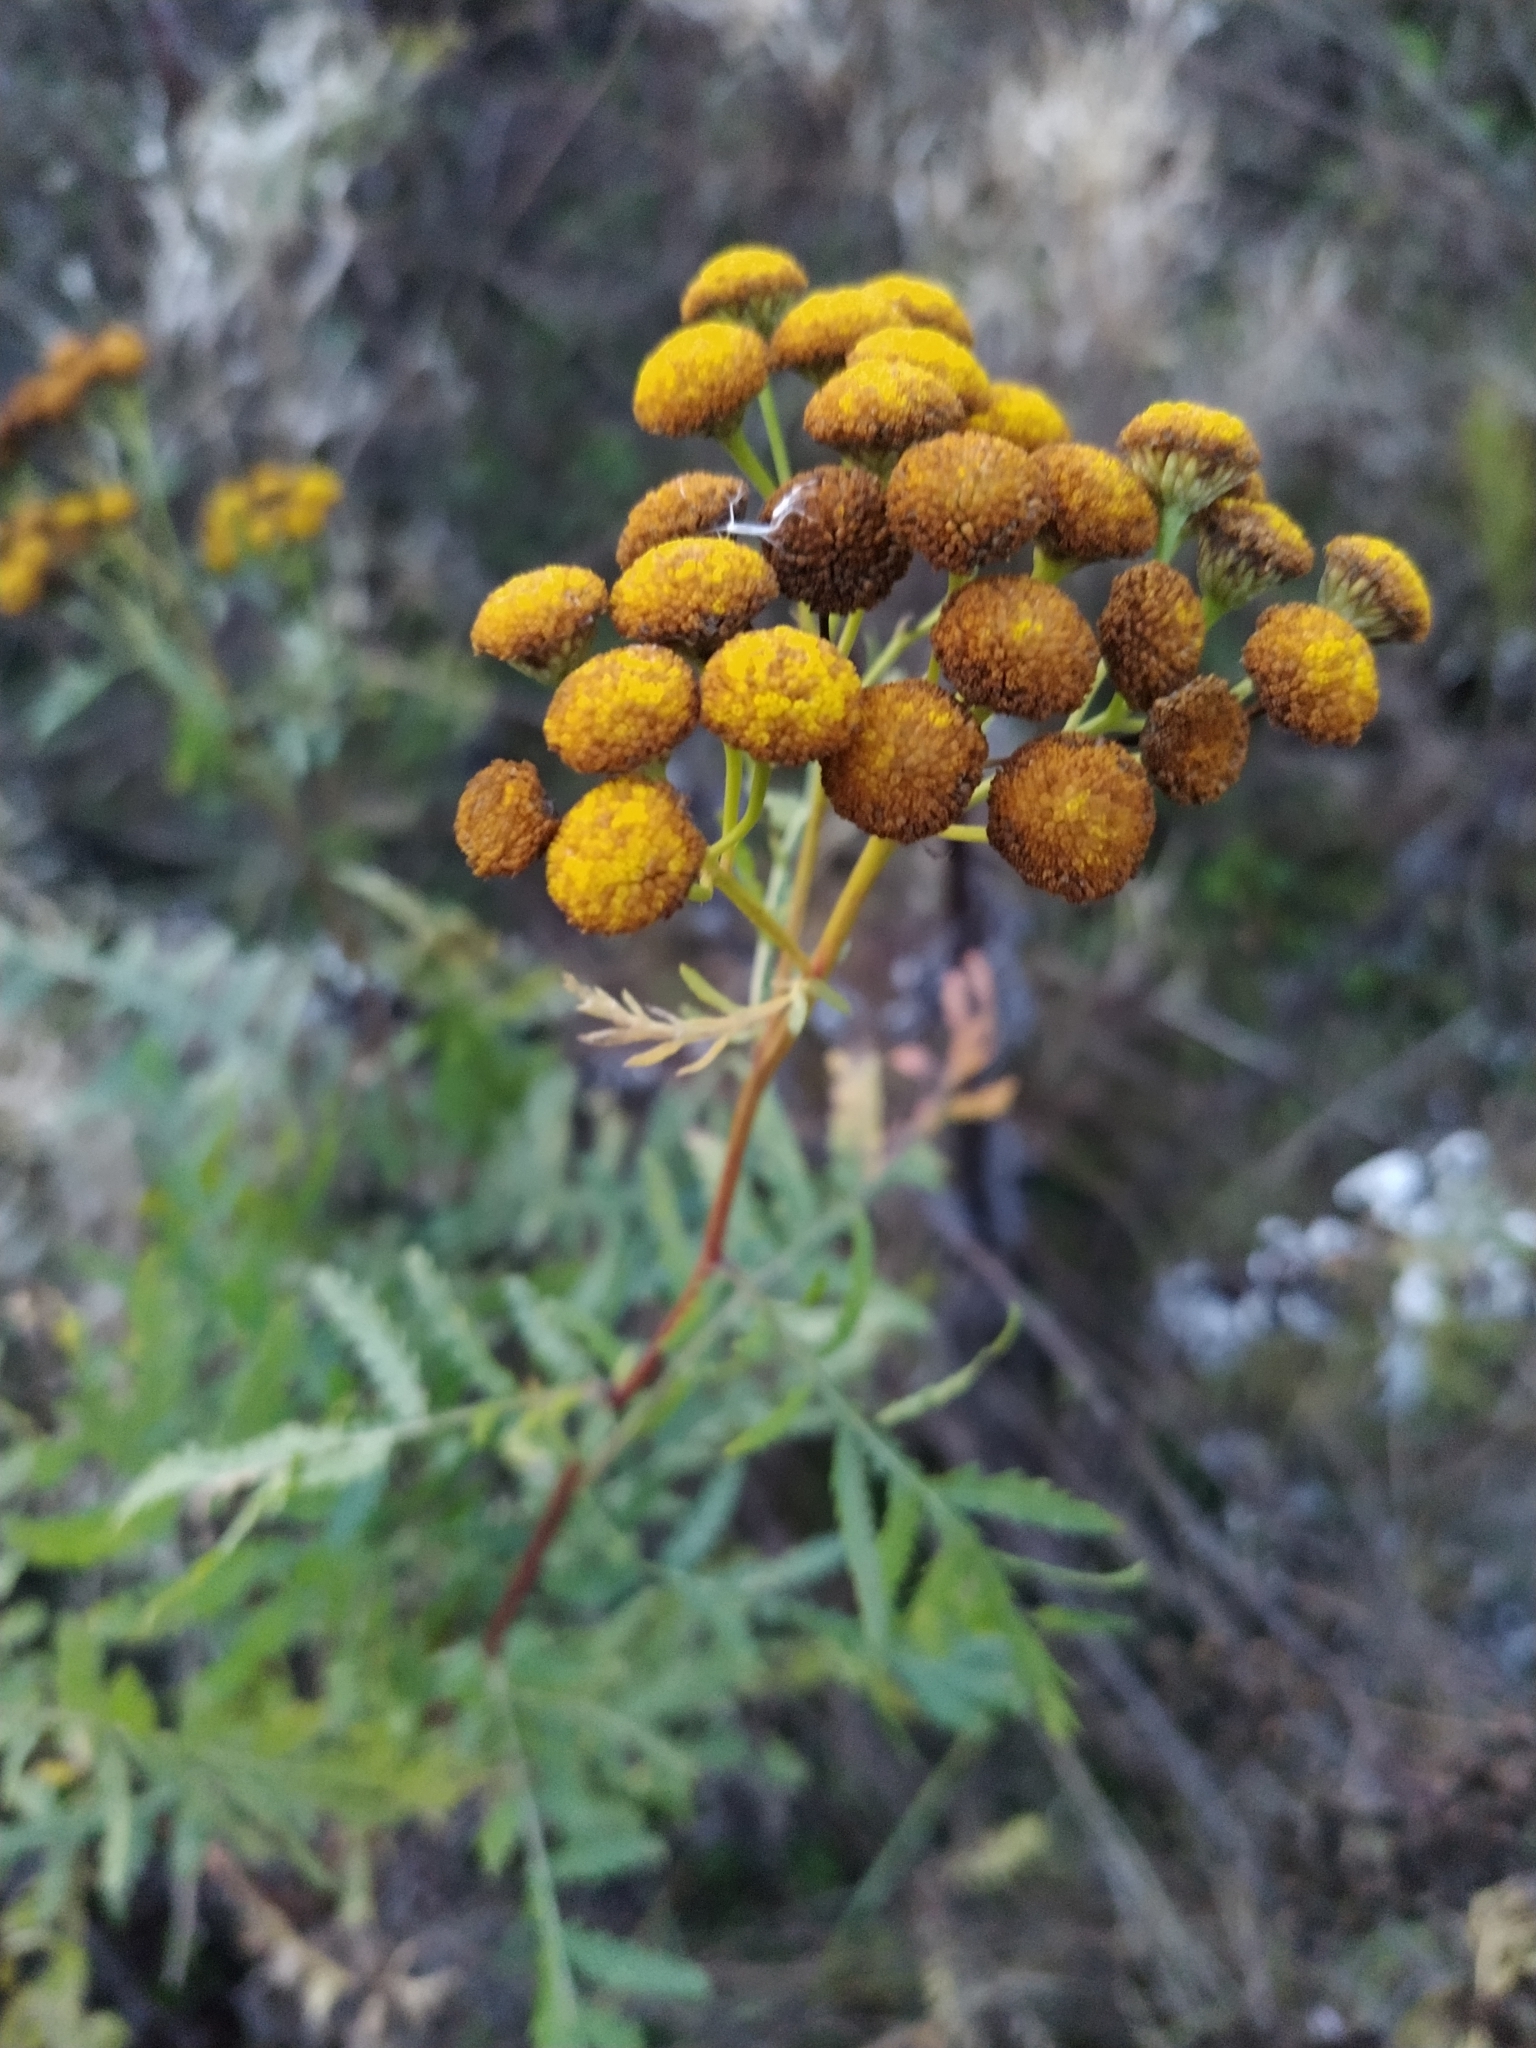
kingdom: Plantae
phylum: Tracheophyta
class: Magnoliopsida
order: Asterales
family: Asteraceae
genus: Tanacetum
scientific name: Tanacetum vulgare
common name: Common tansy
